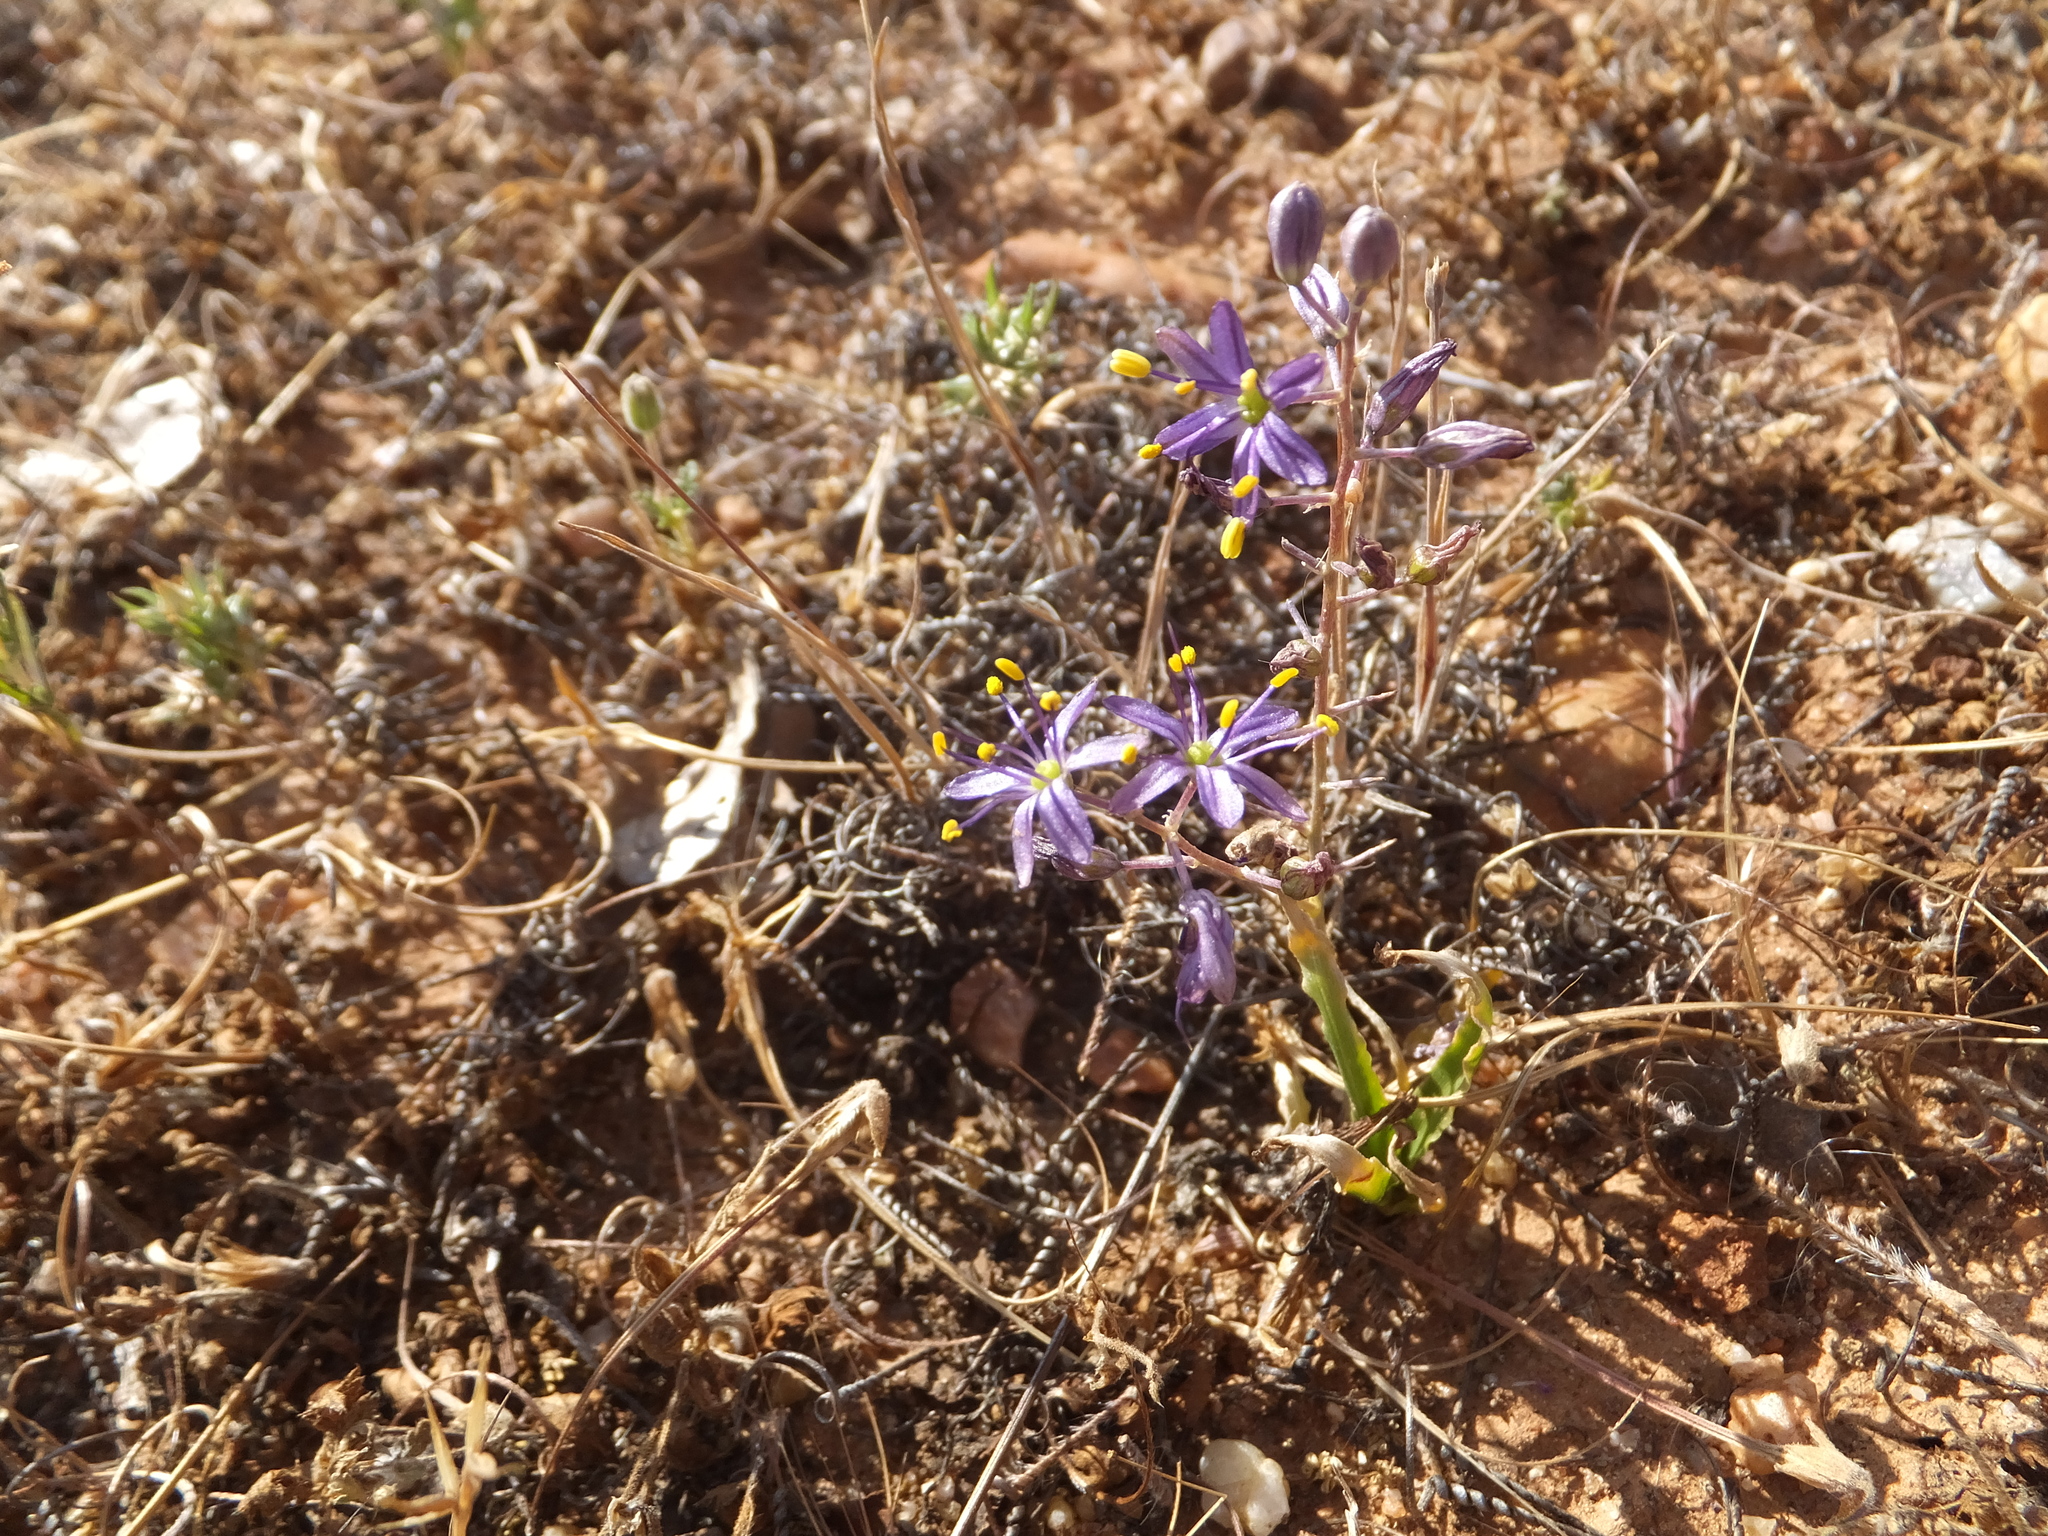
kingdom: Plantae
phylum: Tracheophyta
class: Liliopsida
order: Asparagales
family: Asparagaceae
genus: Hooveria
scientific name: Hooveria purpurea
